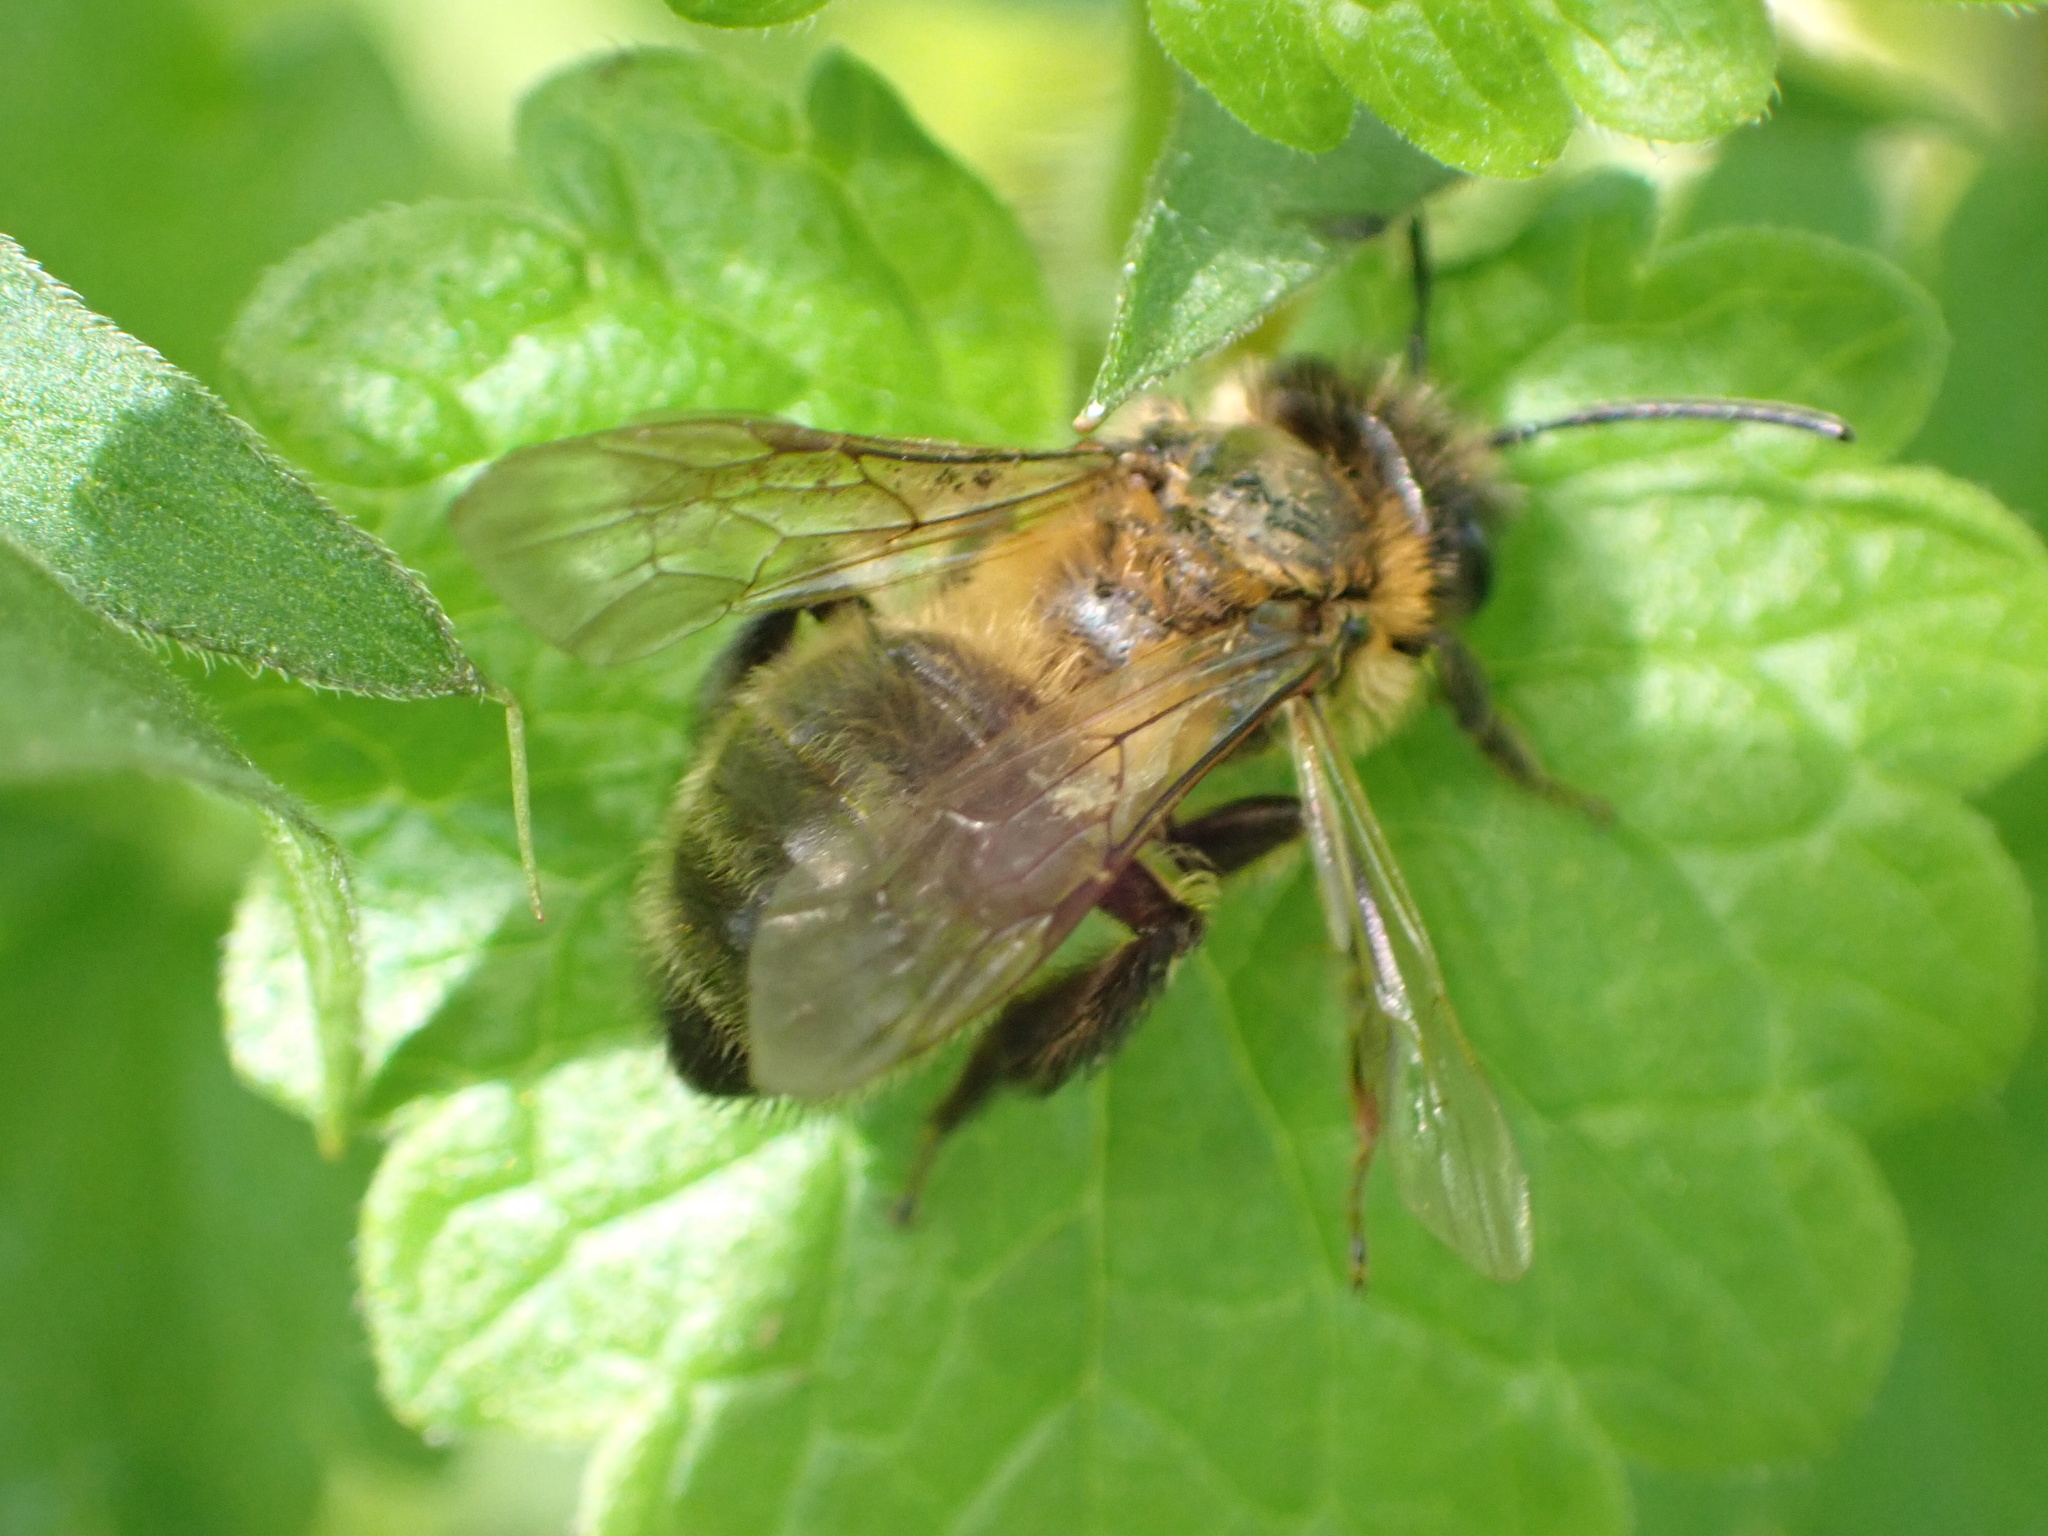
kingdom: Animalia
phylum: Arthropoda
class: Insecta
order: Hymenoptera
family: Andrenidae
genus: Andrena
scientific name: Andrena carantonica
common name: Chocolate mining bee
